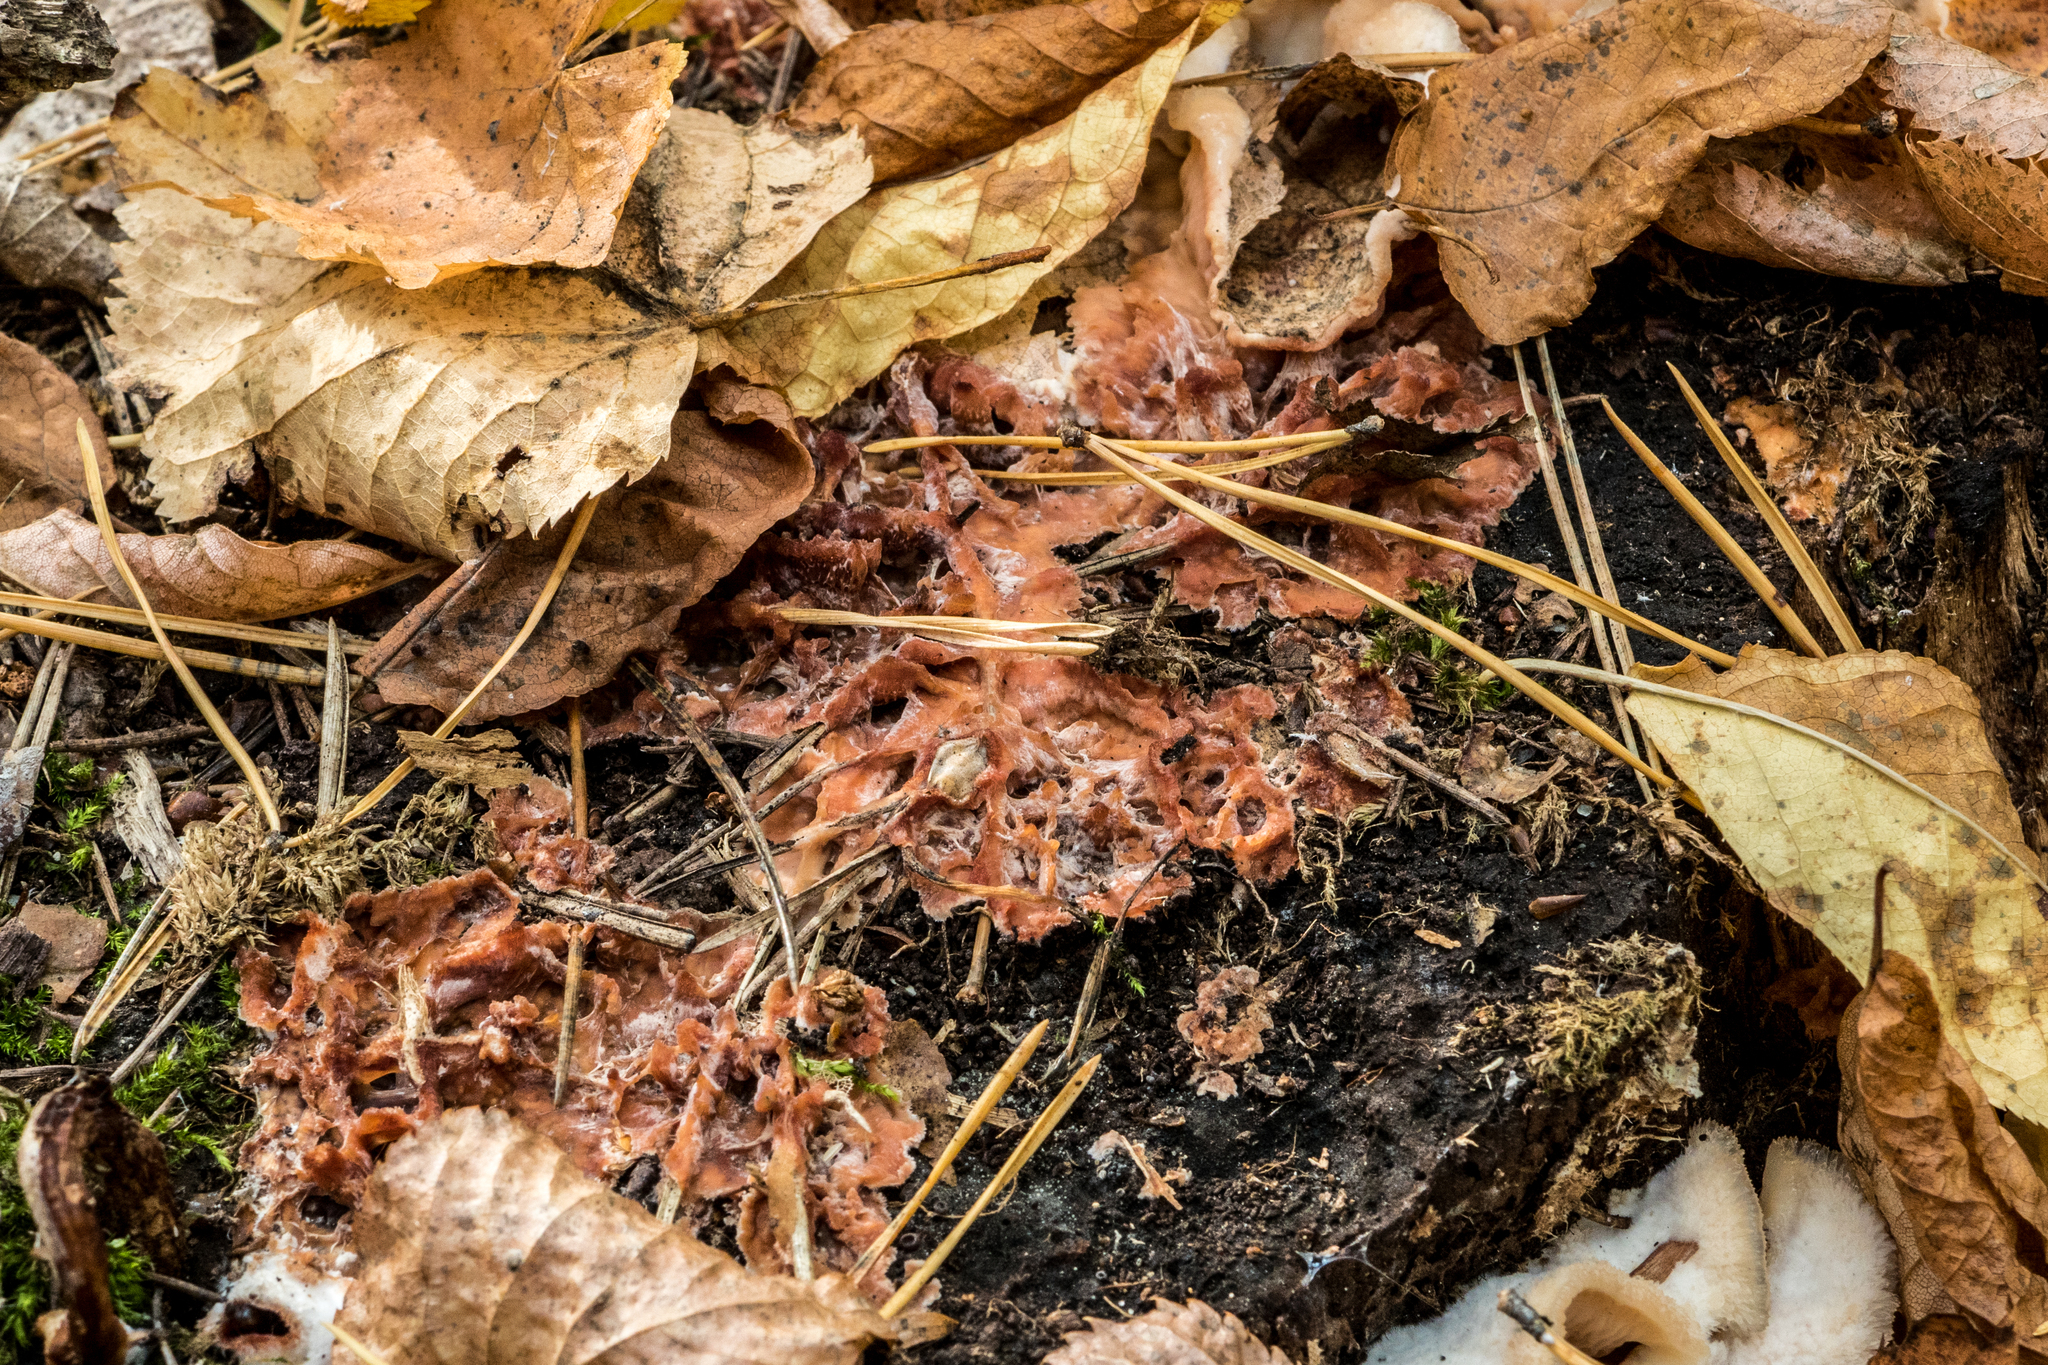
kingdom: Fungi
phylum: Basidiomycota
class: Agaricomycetes
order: Polyporales
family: Meruliaceae
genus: Phlebia
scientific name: Phlebia radiata
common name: Wrinkled crust
